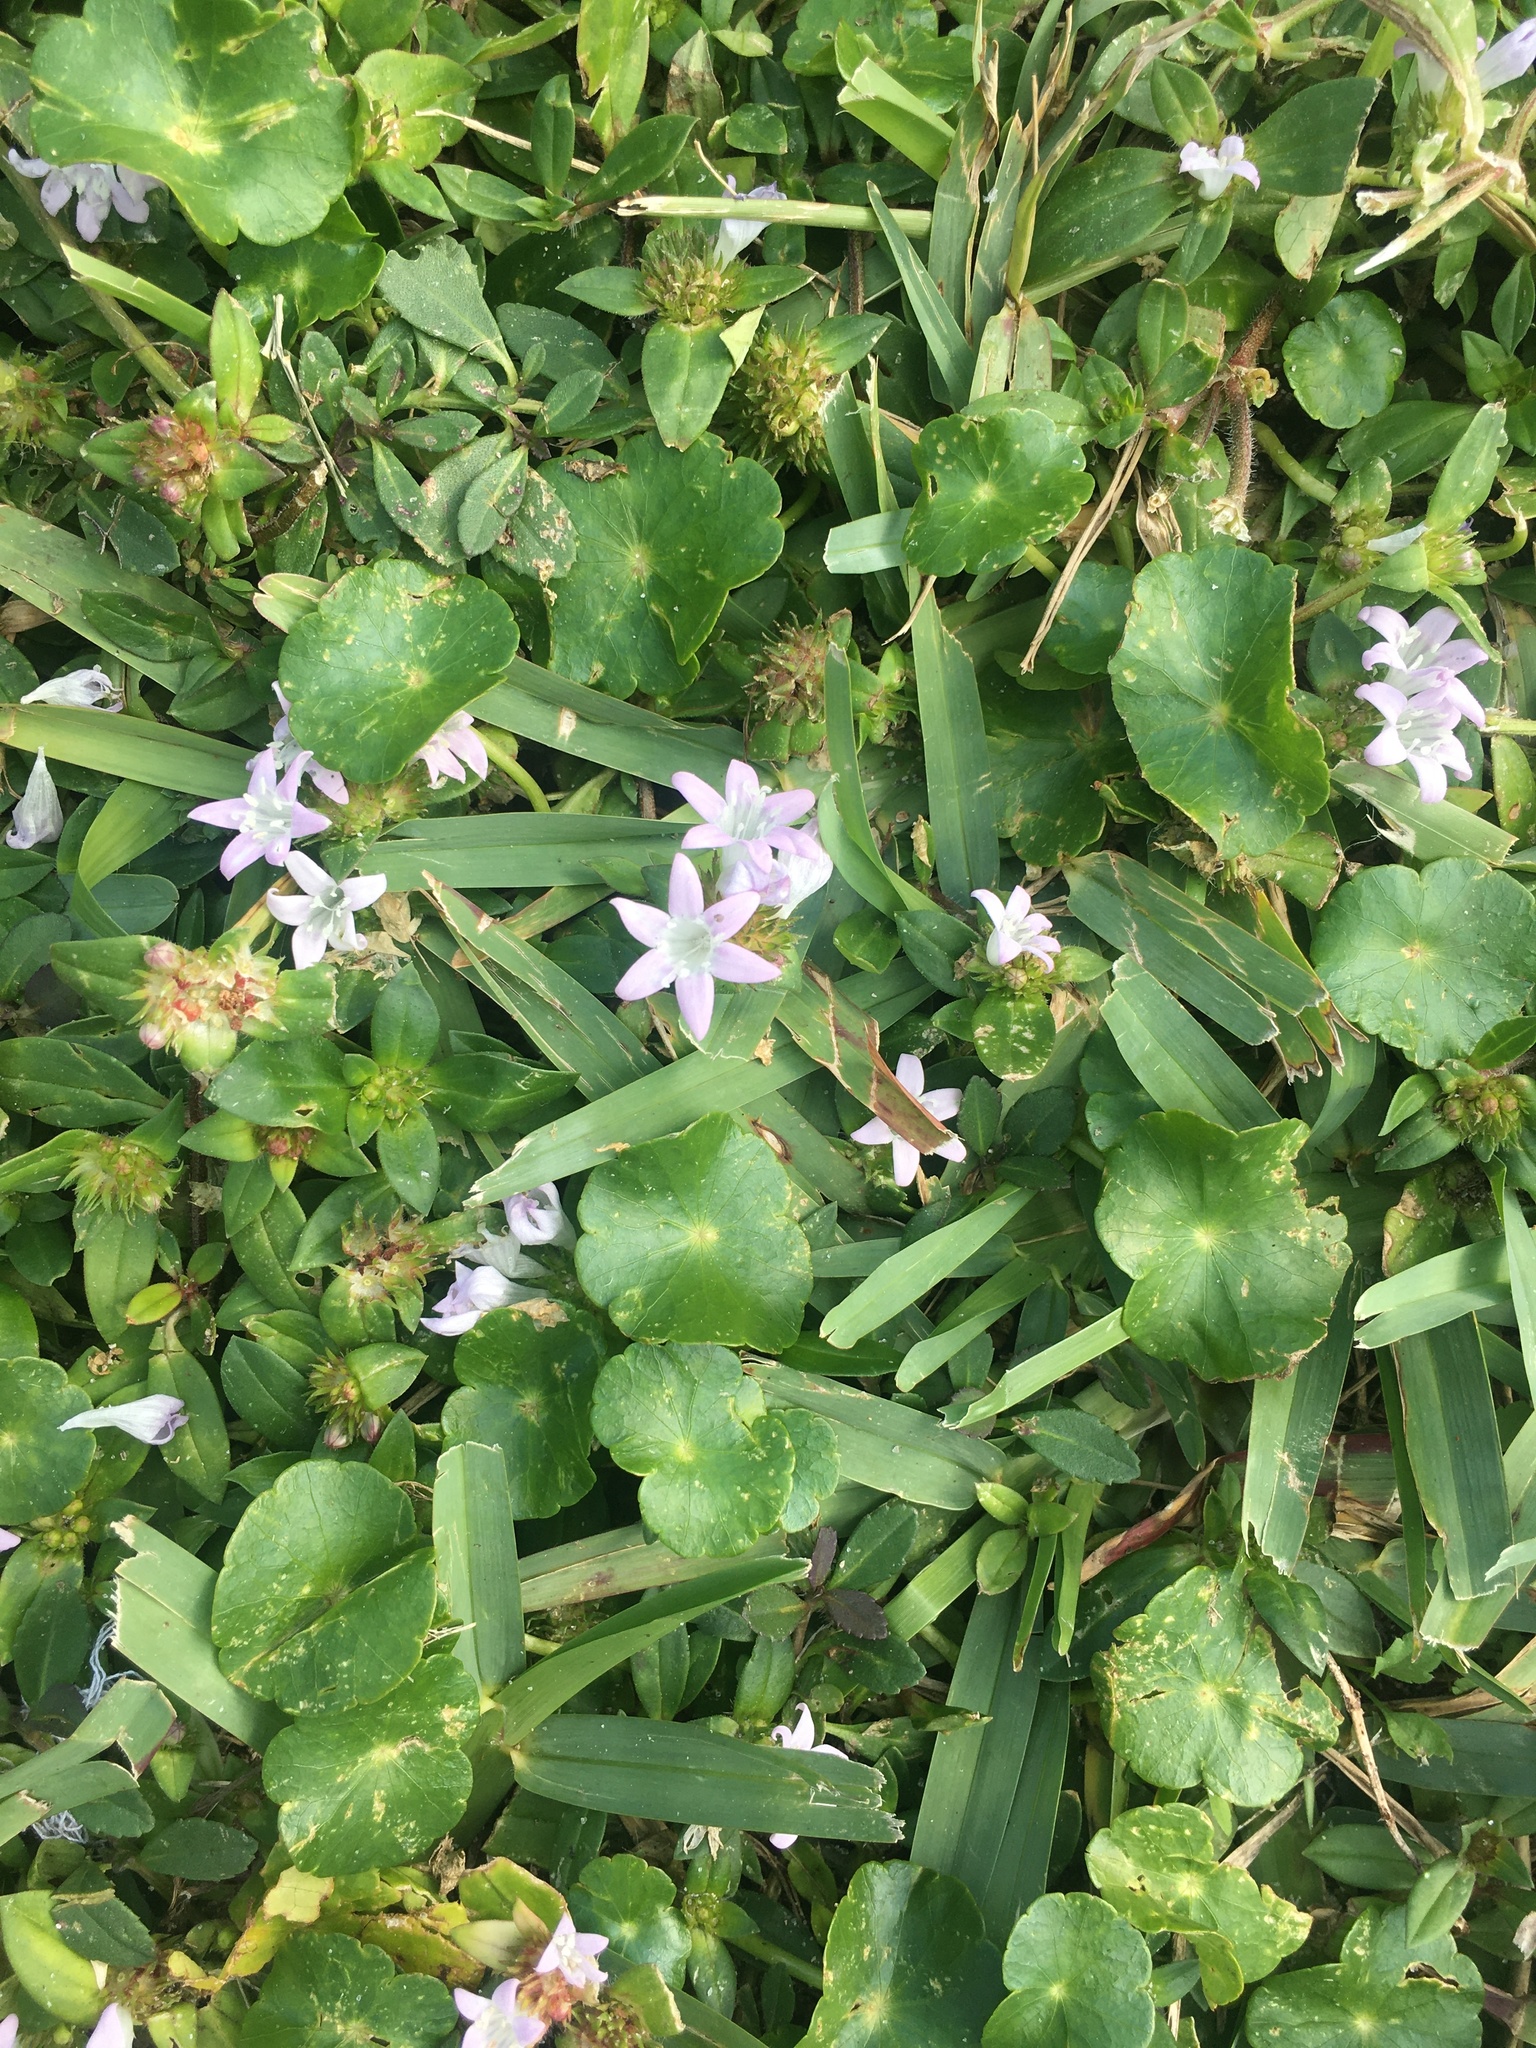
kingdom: Plantae
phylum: Tracheophyta
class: Magnoliopsida
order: Gentianales
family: Rubiaceae
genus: Richardia
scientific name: Richardia grandiflora
